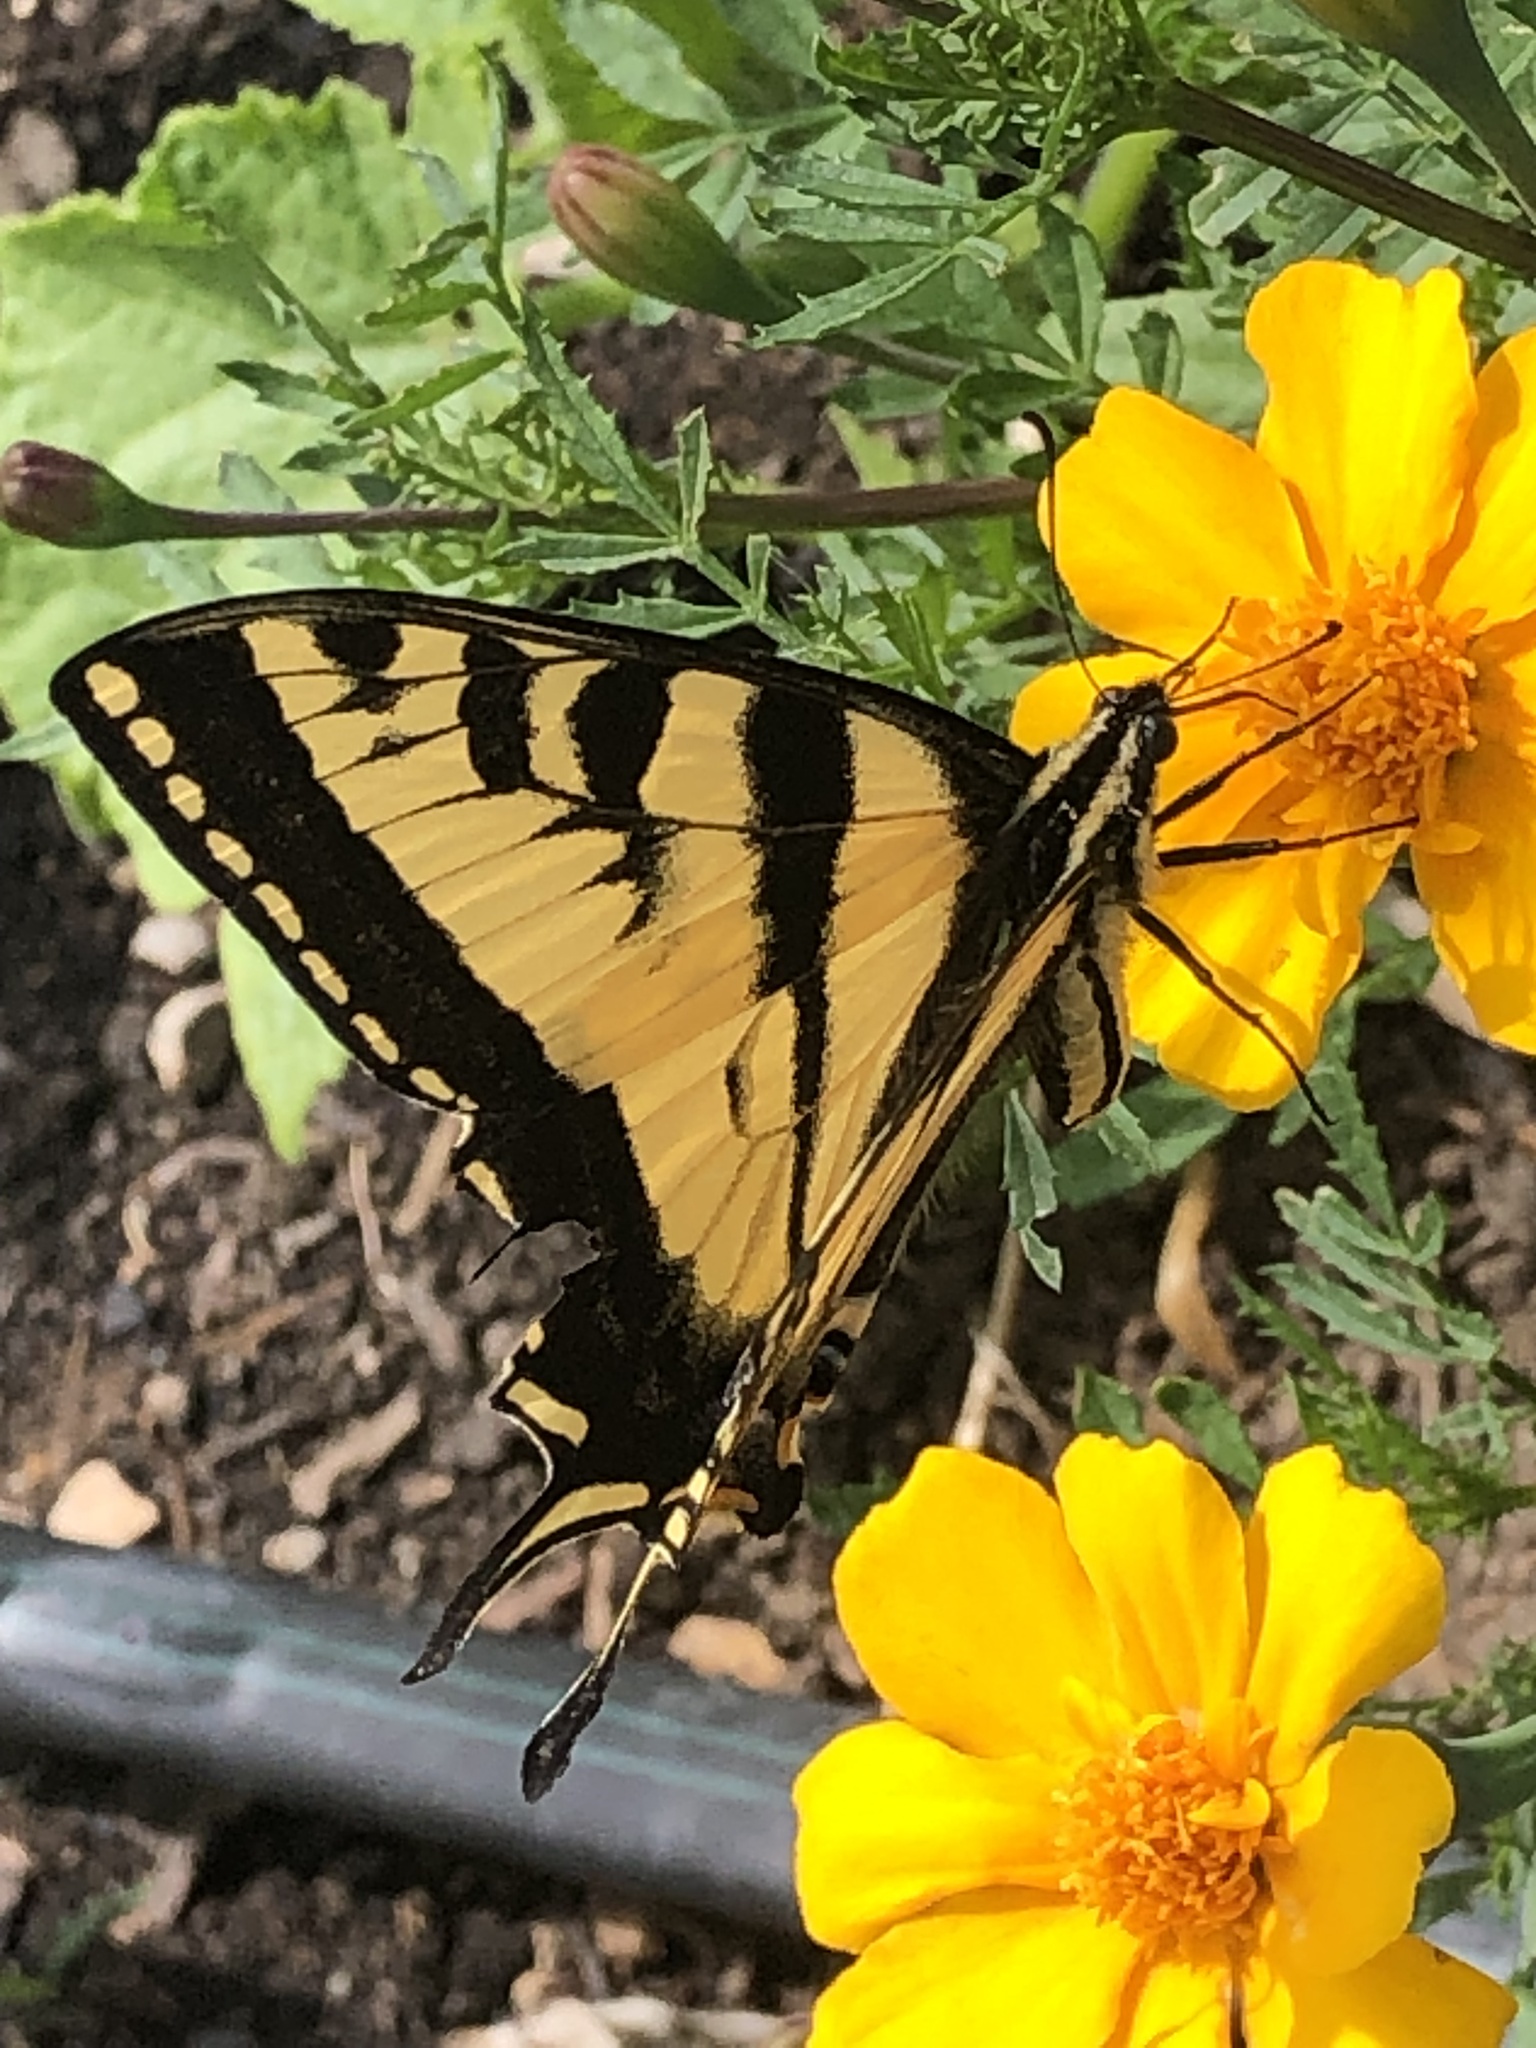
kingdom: Animalia
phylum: Arthropoda
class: Insecta
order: Lepidoptera
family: Papilionidae
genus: Papilio
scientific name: Papilio rutulus
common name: Western tiger swallowtail
